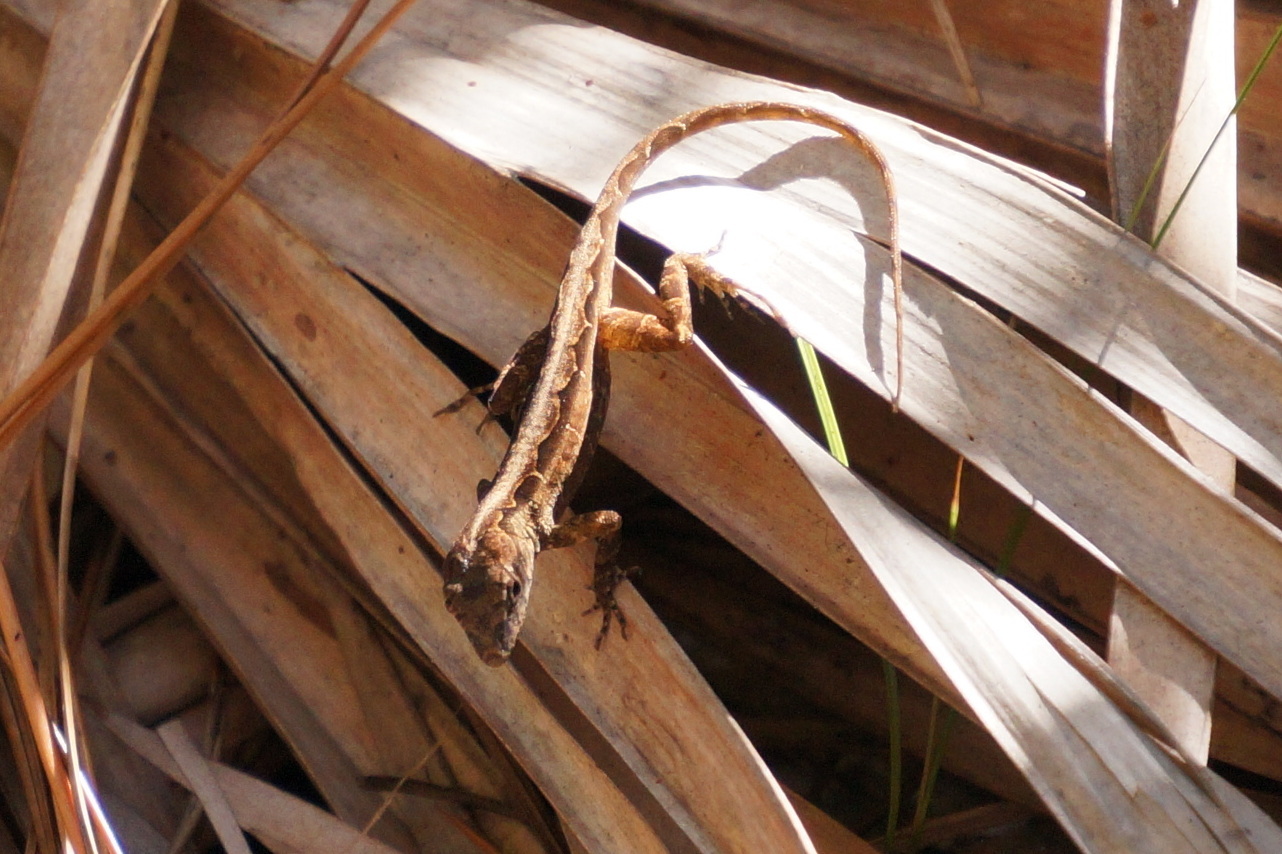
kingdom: Animalia
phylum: Chordata
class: Squamata
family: Dactyloidae
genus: Anolis
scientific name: Anolis sagrei
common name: Brown anole
